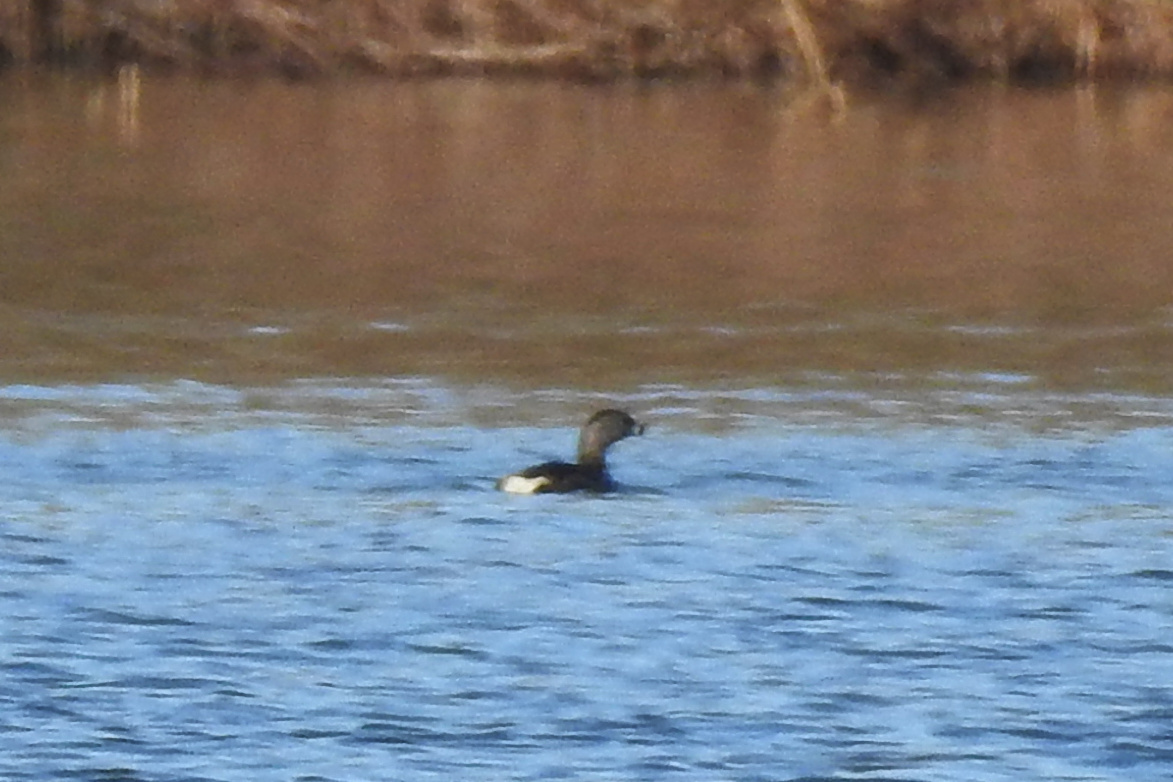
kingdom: Animalia
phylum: Chordata
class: Aves
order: Podicipediformes
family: Podicipedidae
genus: Podilymbus
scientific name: Podilymbus podiceps
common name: Pied-billed grebe
